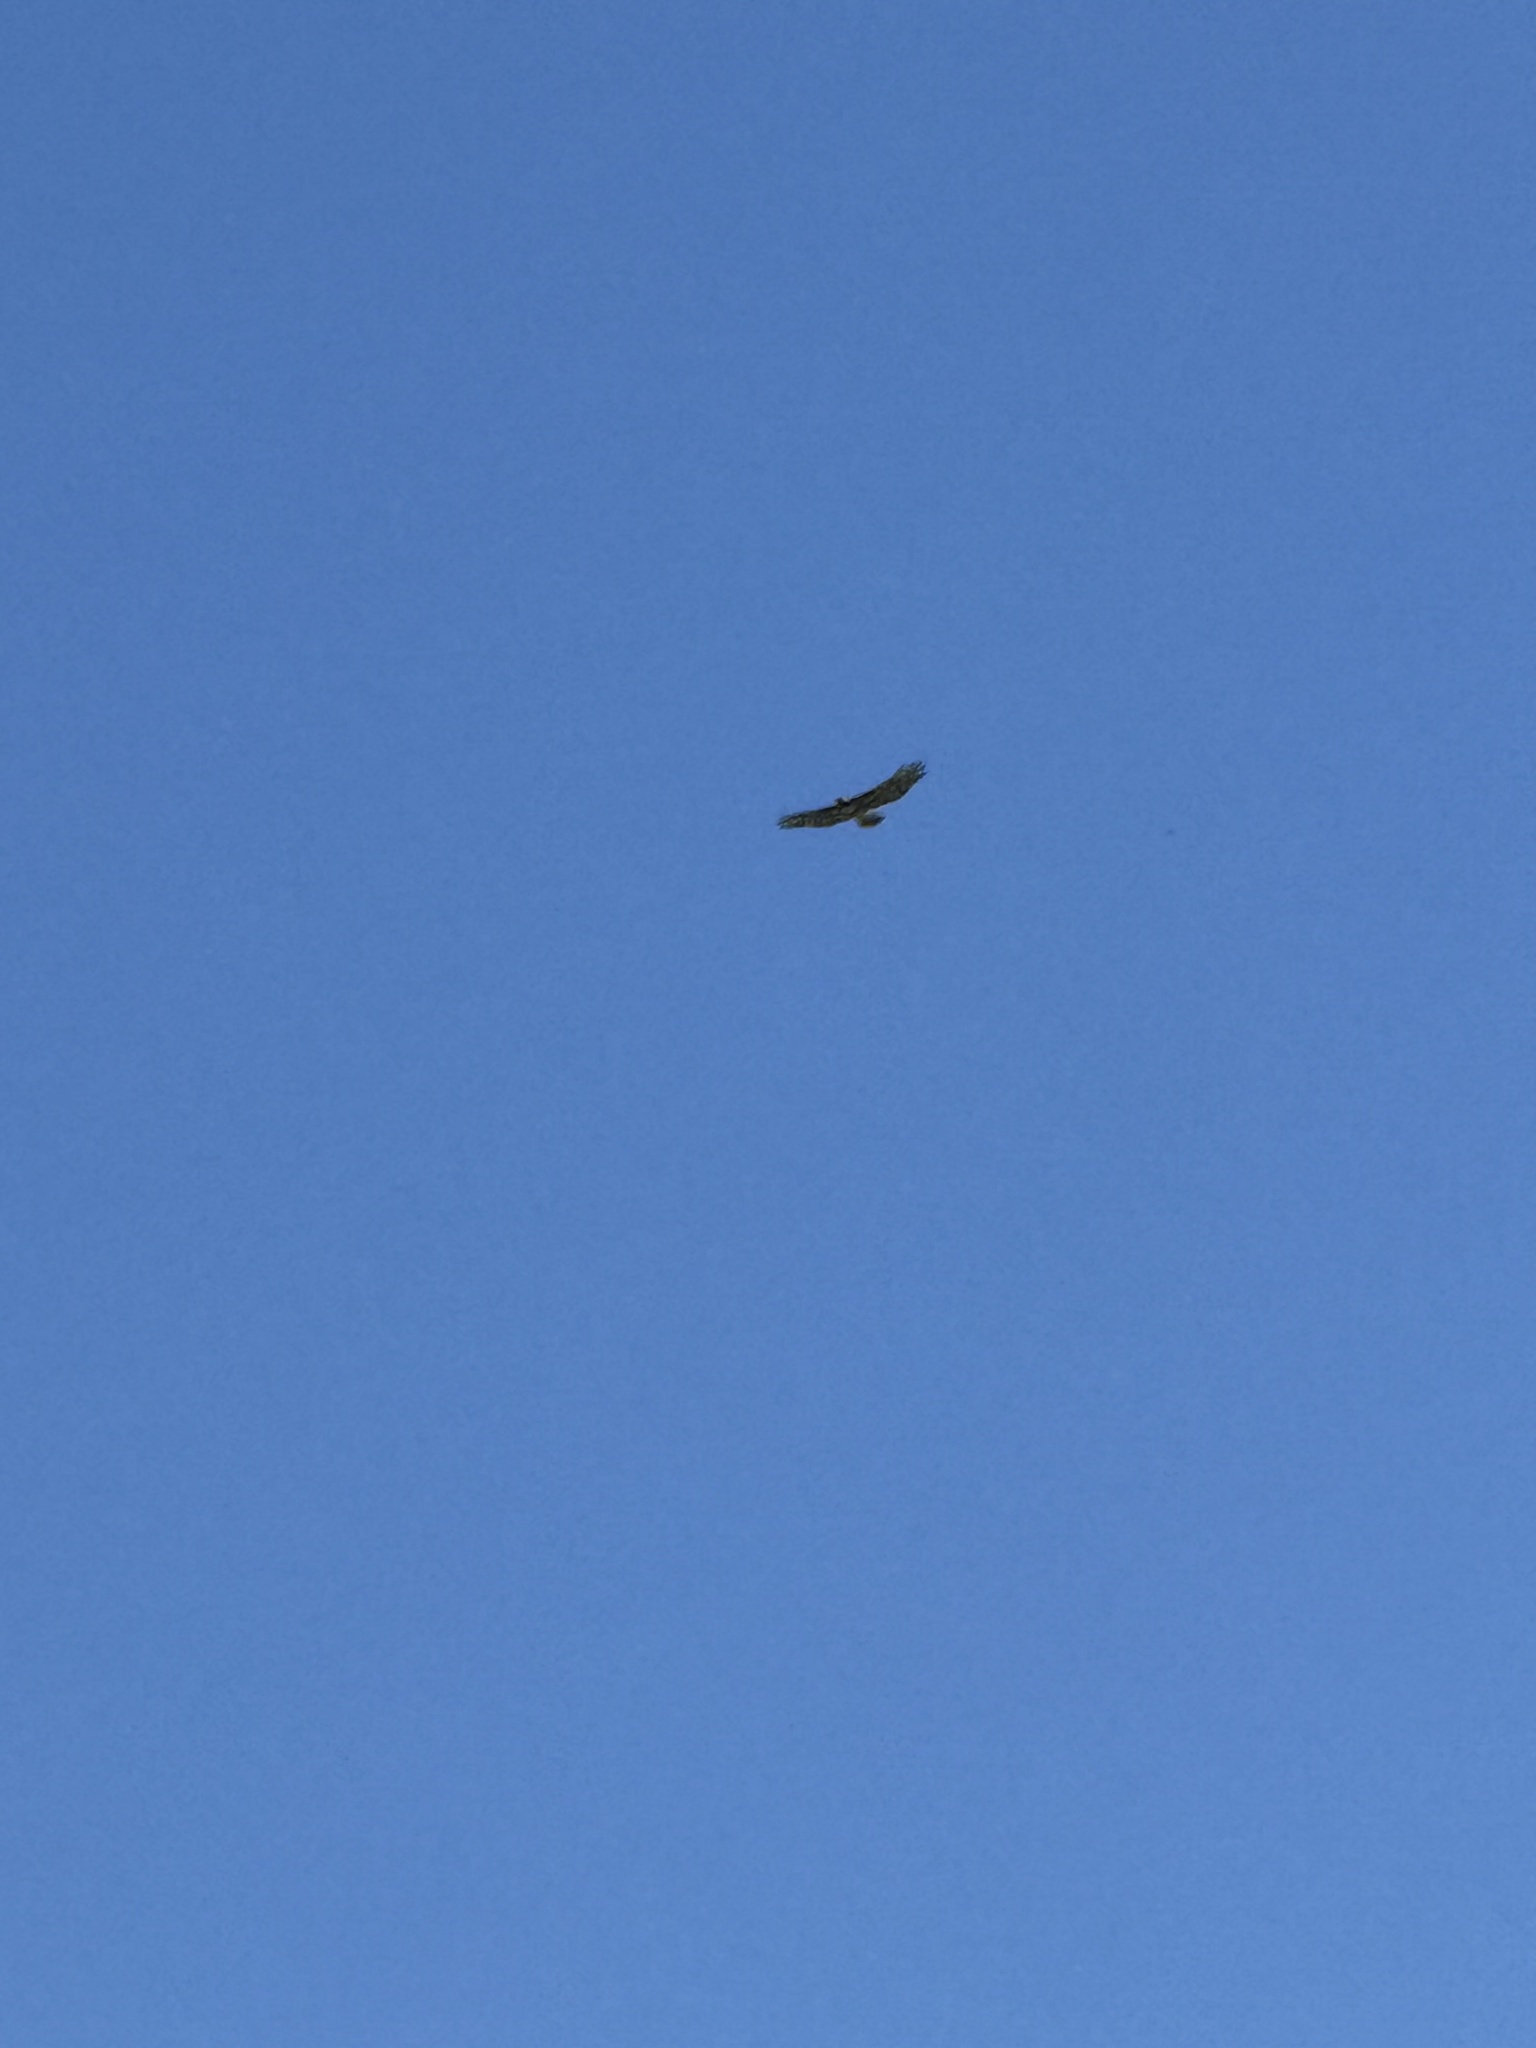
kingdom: Animalia
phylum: Chordata
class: Aves
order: Accipitriformes
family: Accipitridae
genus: Buteo
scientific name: Buteo jamaicensis
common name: Red-tailed hawk
